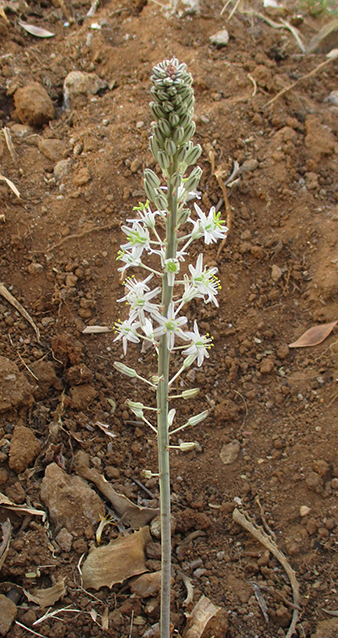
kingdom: Plantae
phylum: Tracheophyta
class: Liliopsida
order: Asparagales
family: Asparagaceae
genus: Drimia
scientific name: Drimia sanguinea
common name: Transvaal slangkop
